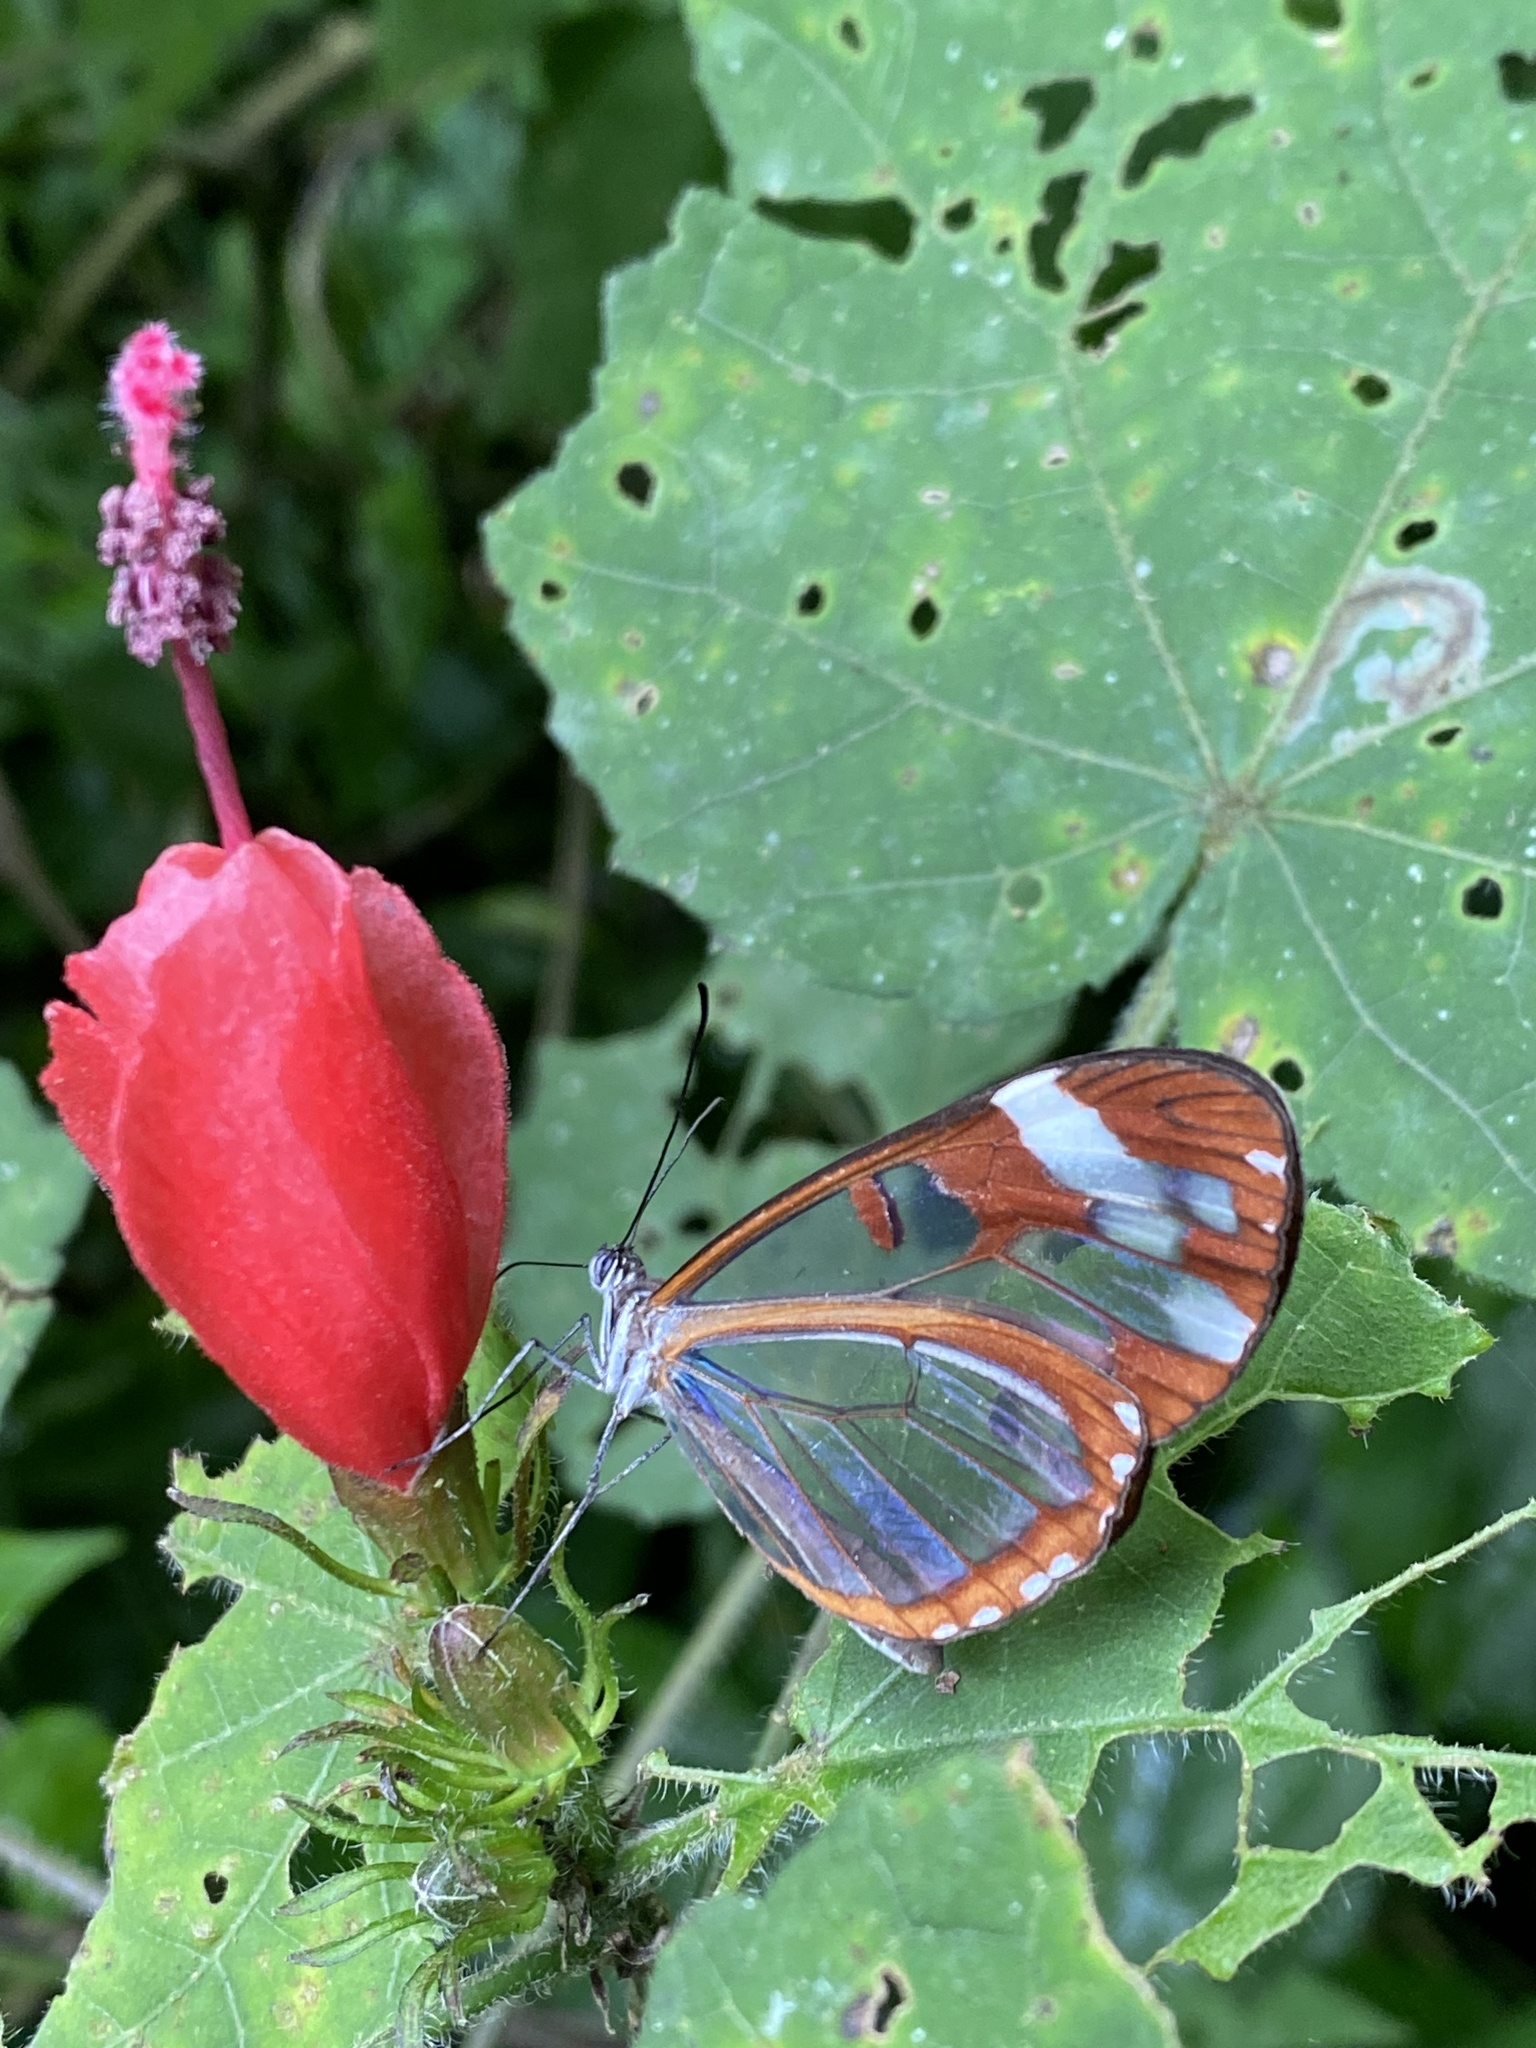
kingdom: Animalia
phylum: Arthropoda
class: Insecta
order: Lepidoptera
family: Nymphalidae
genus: Oleria
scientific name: Oleria zea
